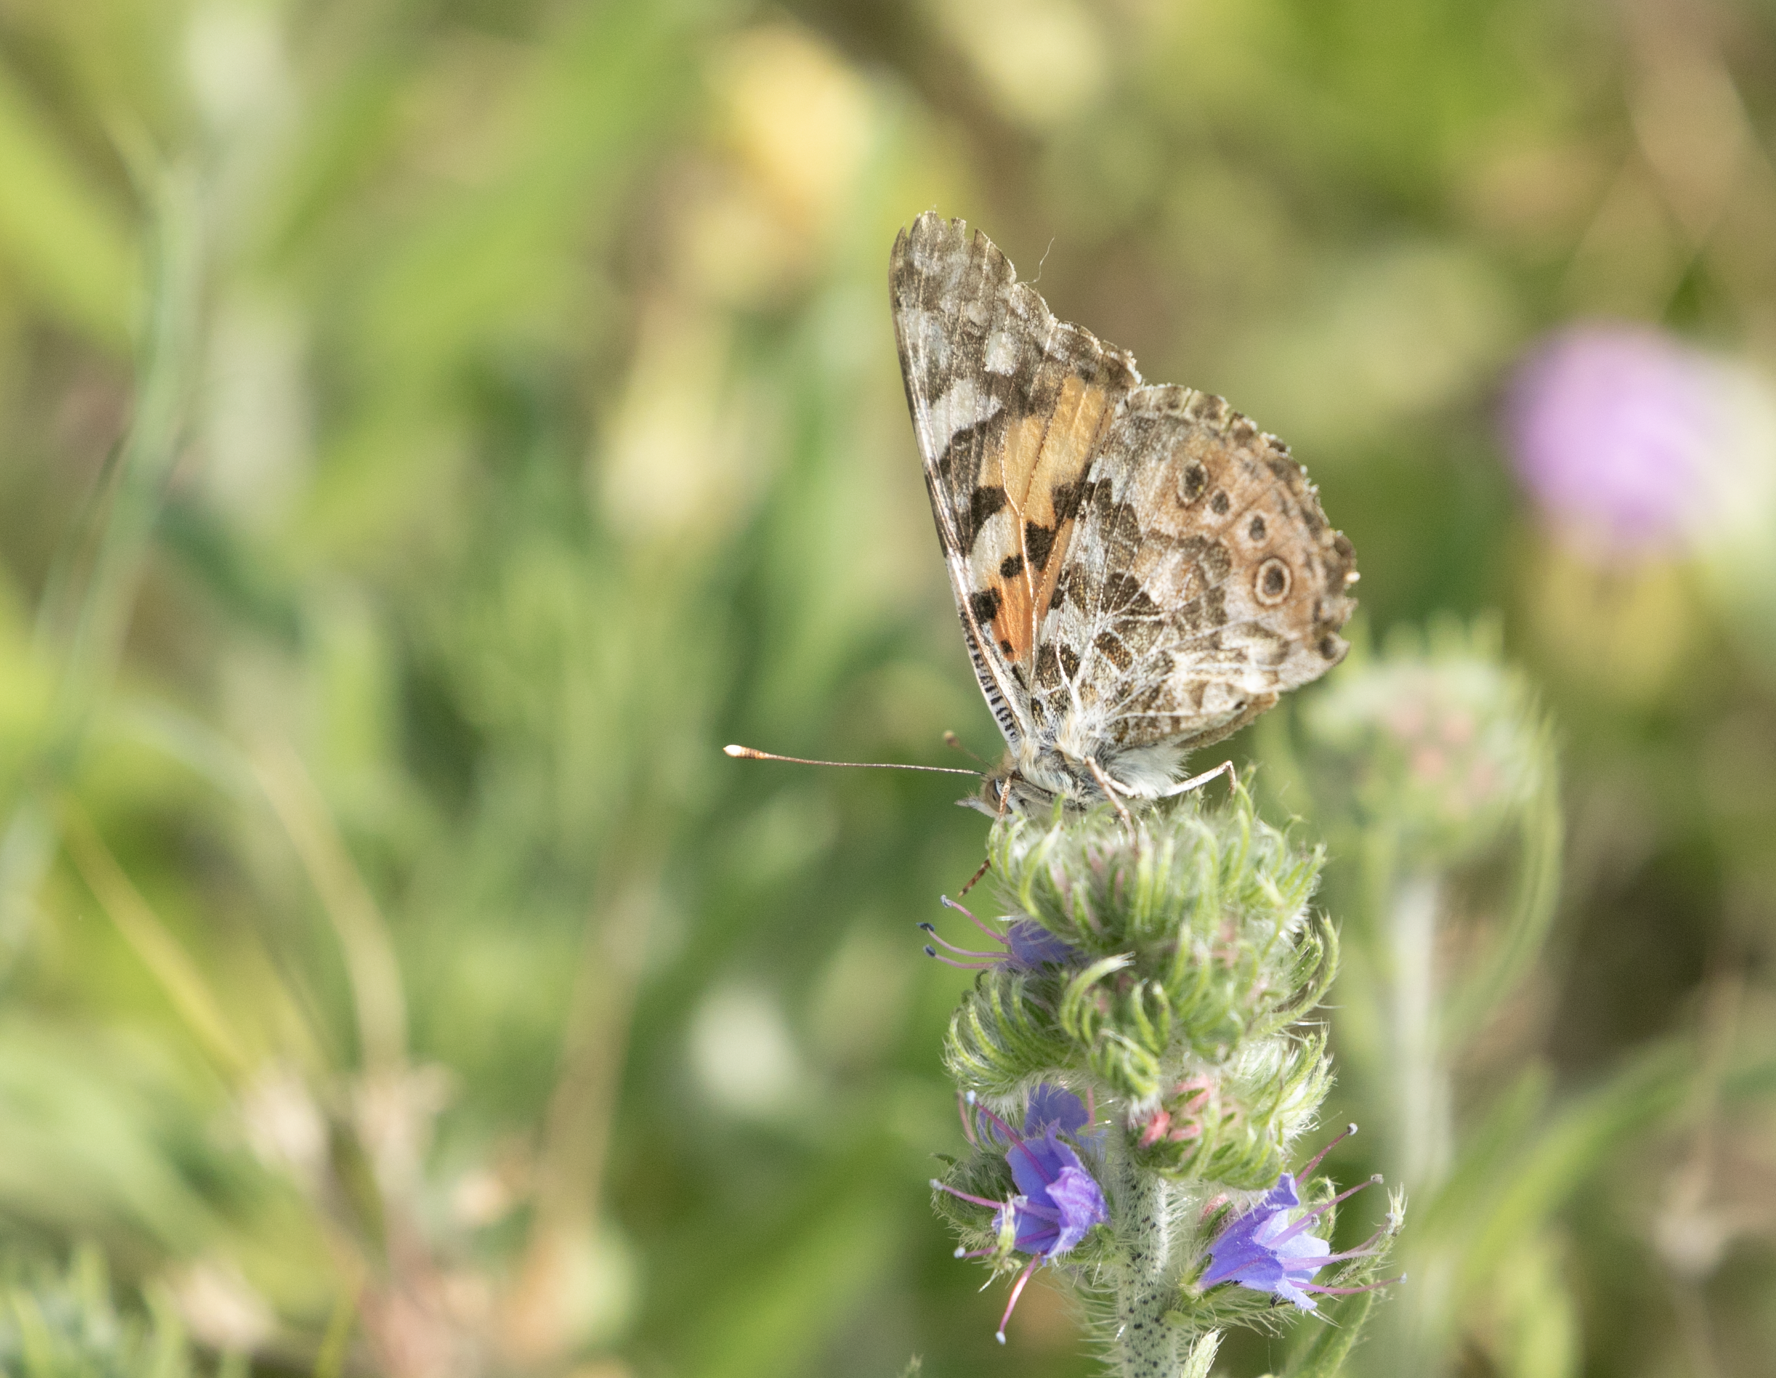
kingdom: Animalia
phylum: Arthropoda
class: Insecta
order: Lepidoptera
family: Nymphalidae
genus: Vanessa
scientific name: Vanessa cardui
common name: Painted lady
